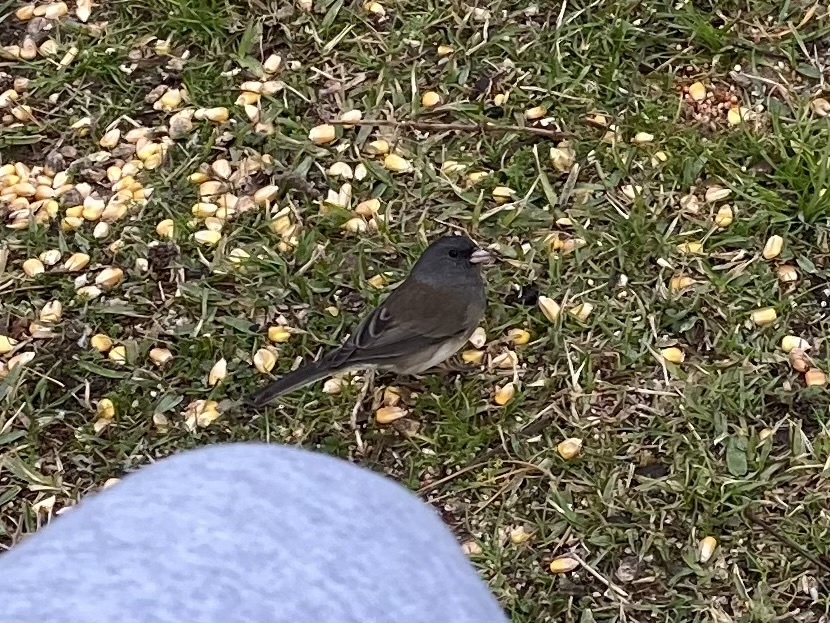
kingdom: Animalia
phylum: Chordata
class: Aves
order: Passeriformes
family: Passerellidae
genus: Junco
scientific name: Junco hyemalis
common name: Dark-eyed junco
